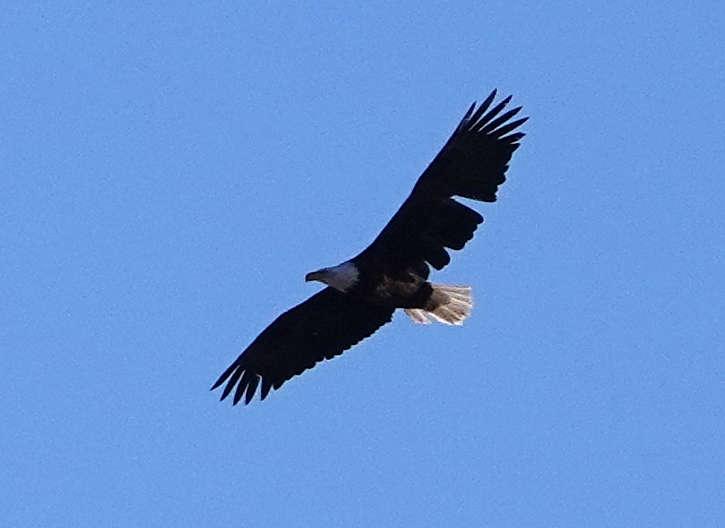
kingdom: Animalia
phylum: Chordata
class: Aves
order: Accipitriformes
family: Accipitridae
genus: Haliaeetus
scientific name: Haliaeetus leucocephalus
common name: Bald eagle
